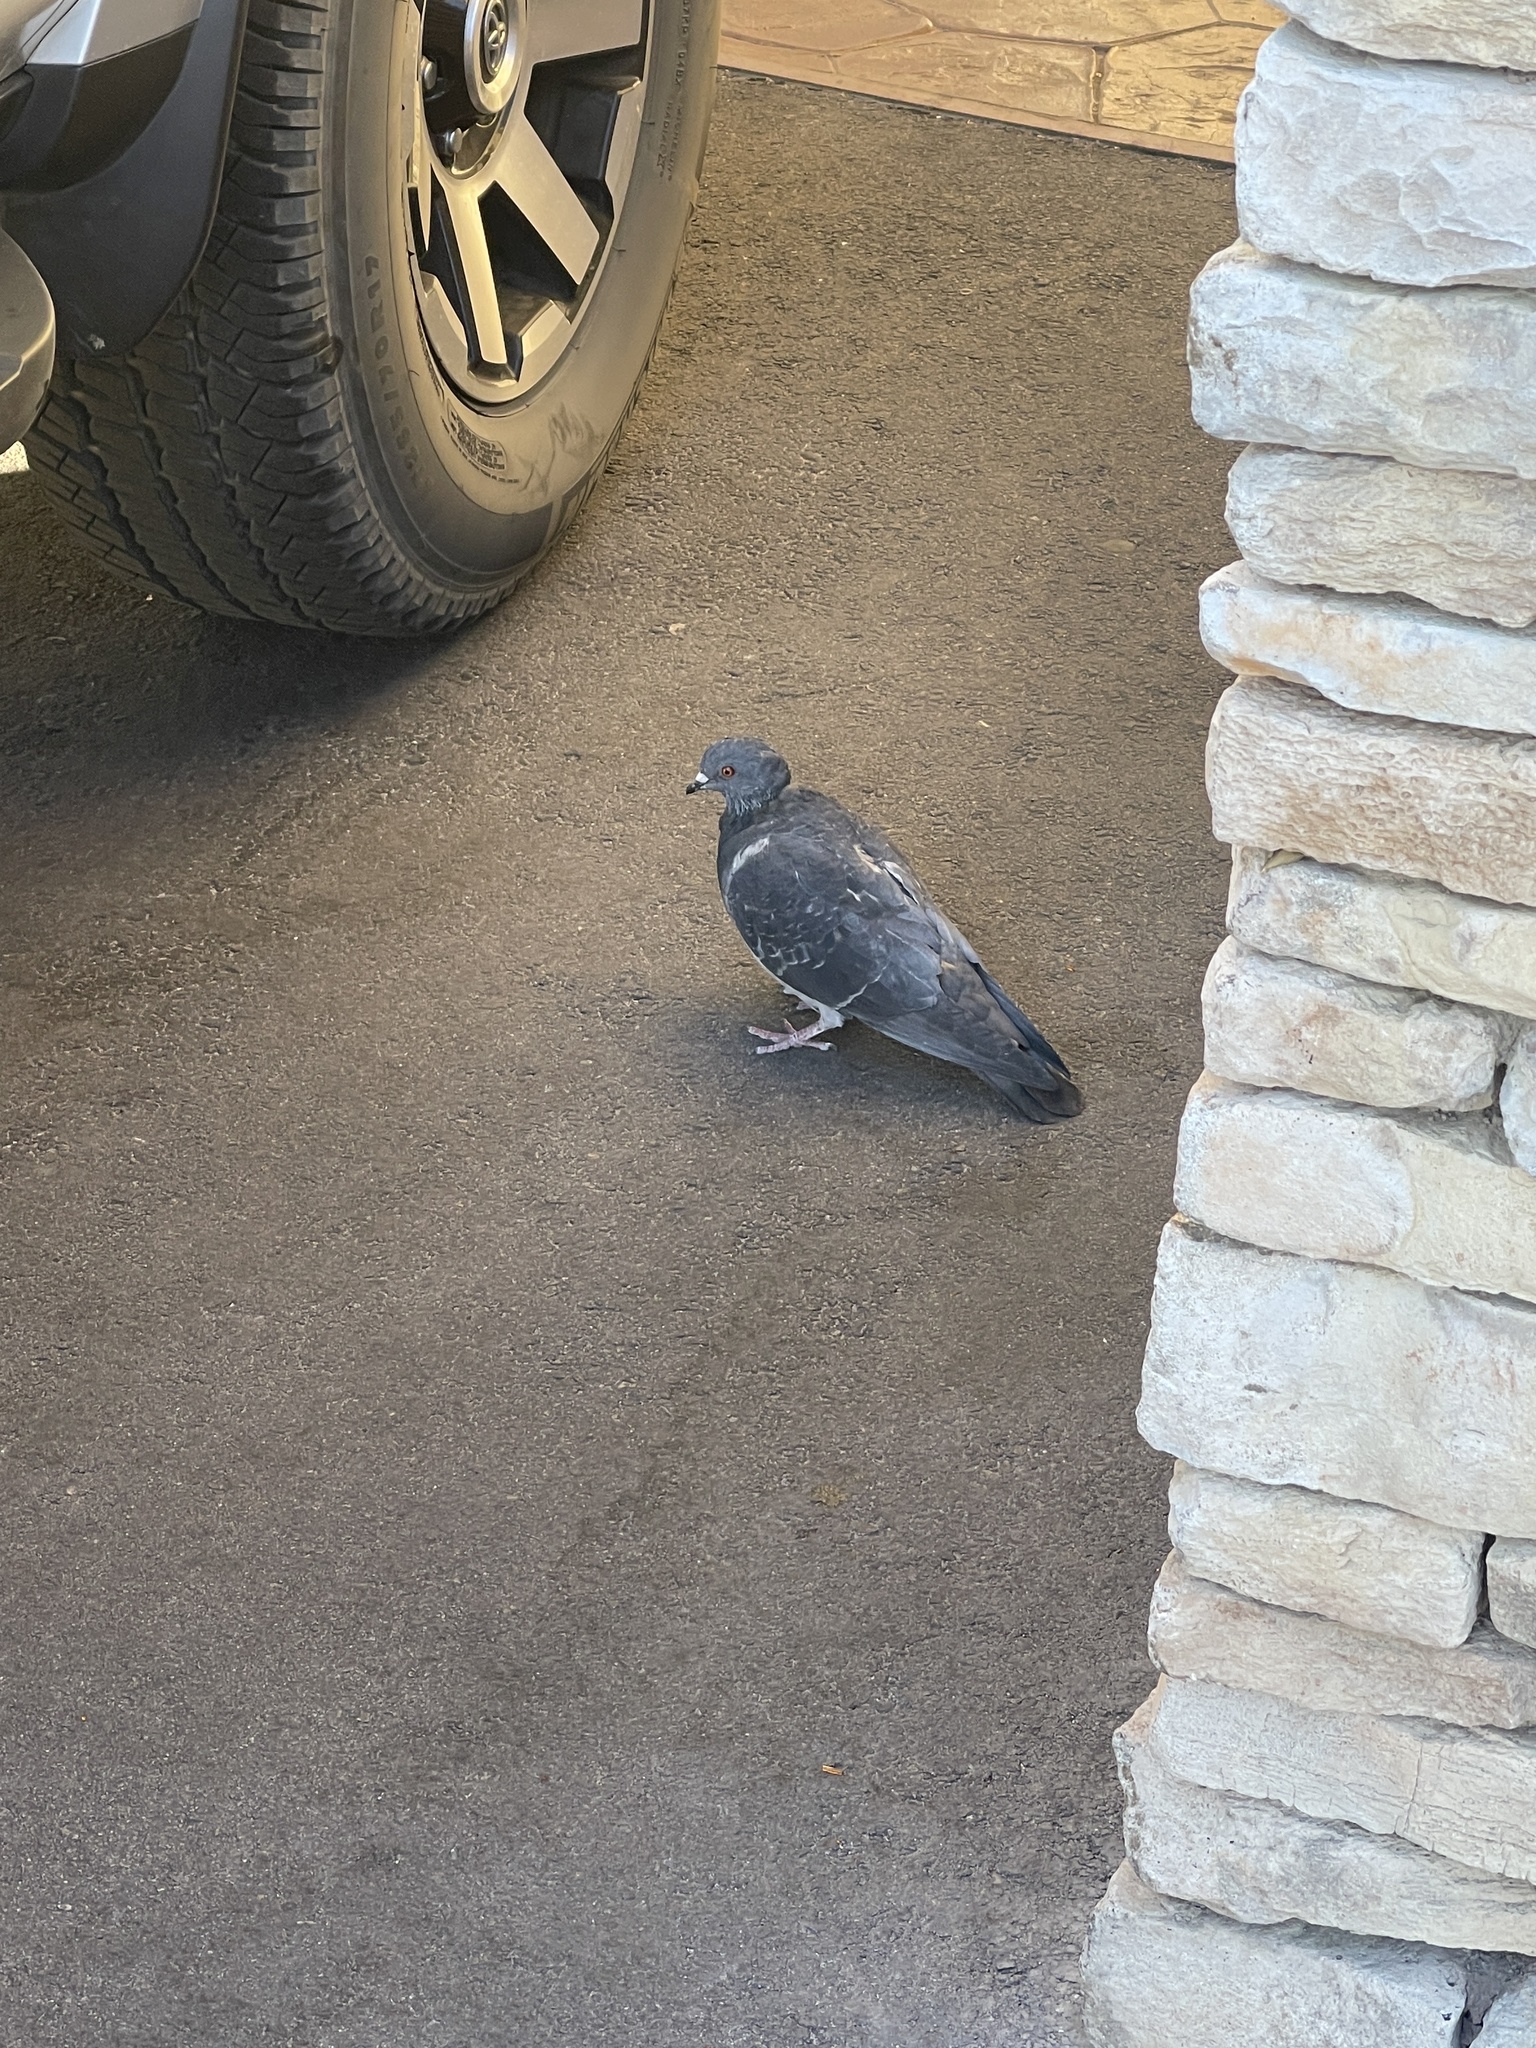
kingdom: Animalia
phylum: Chordata
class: Aves
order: Columbiformes
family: Columbidae
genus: Columba
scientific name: Columba livia
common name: Rock pigeon
